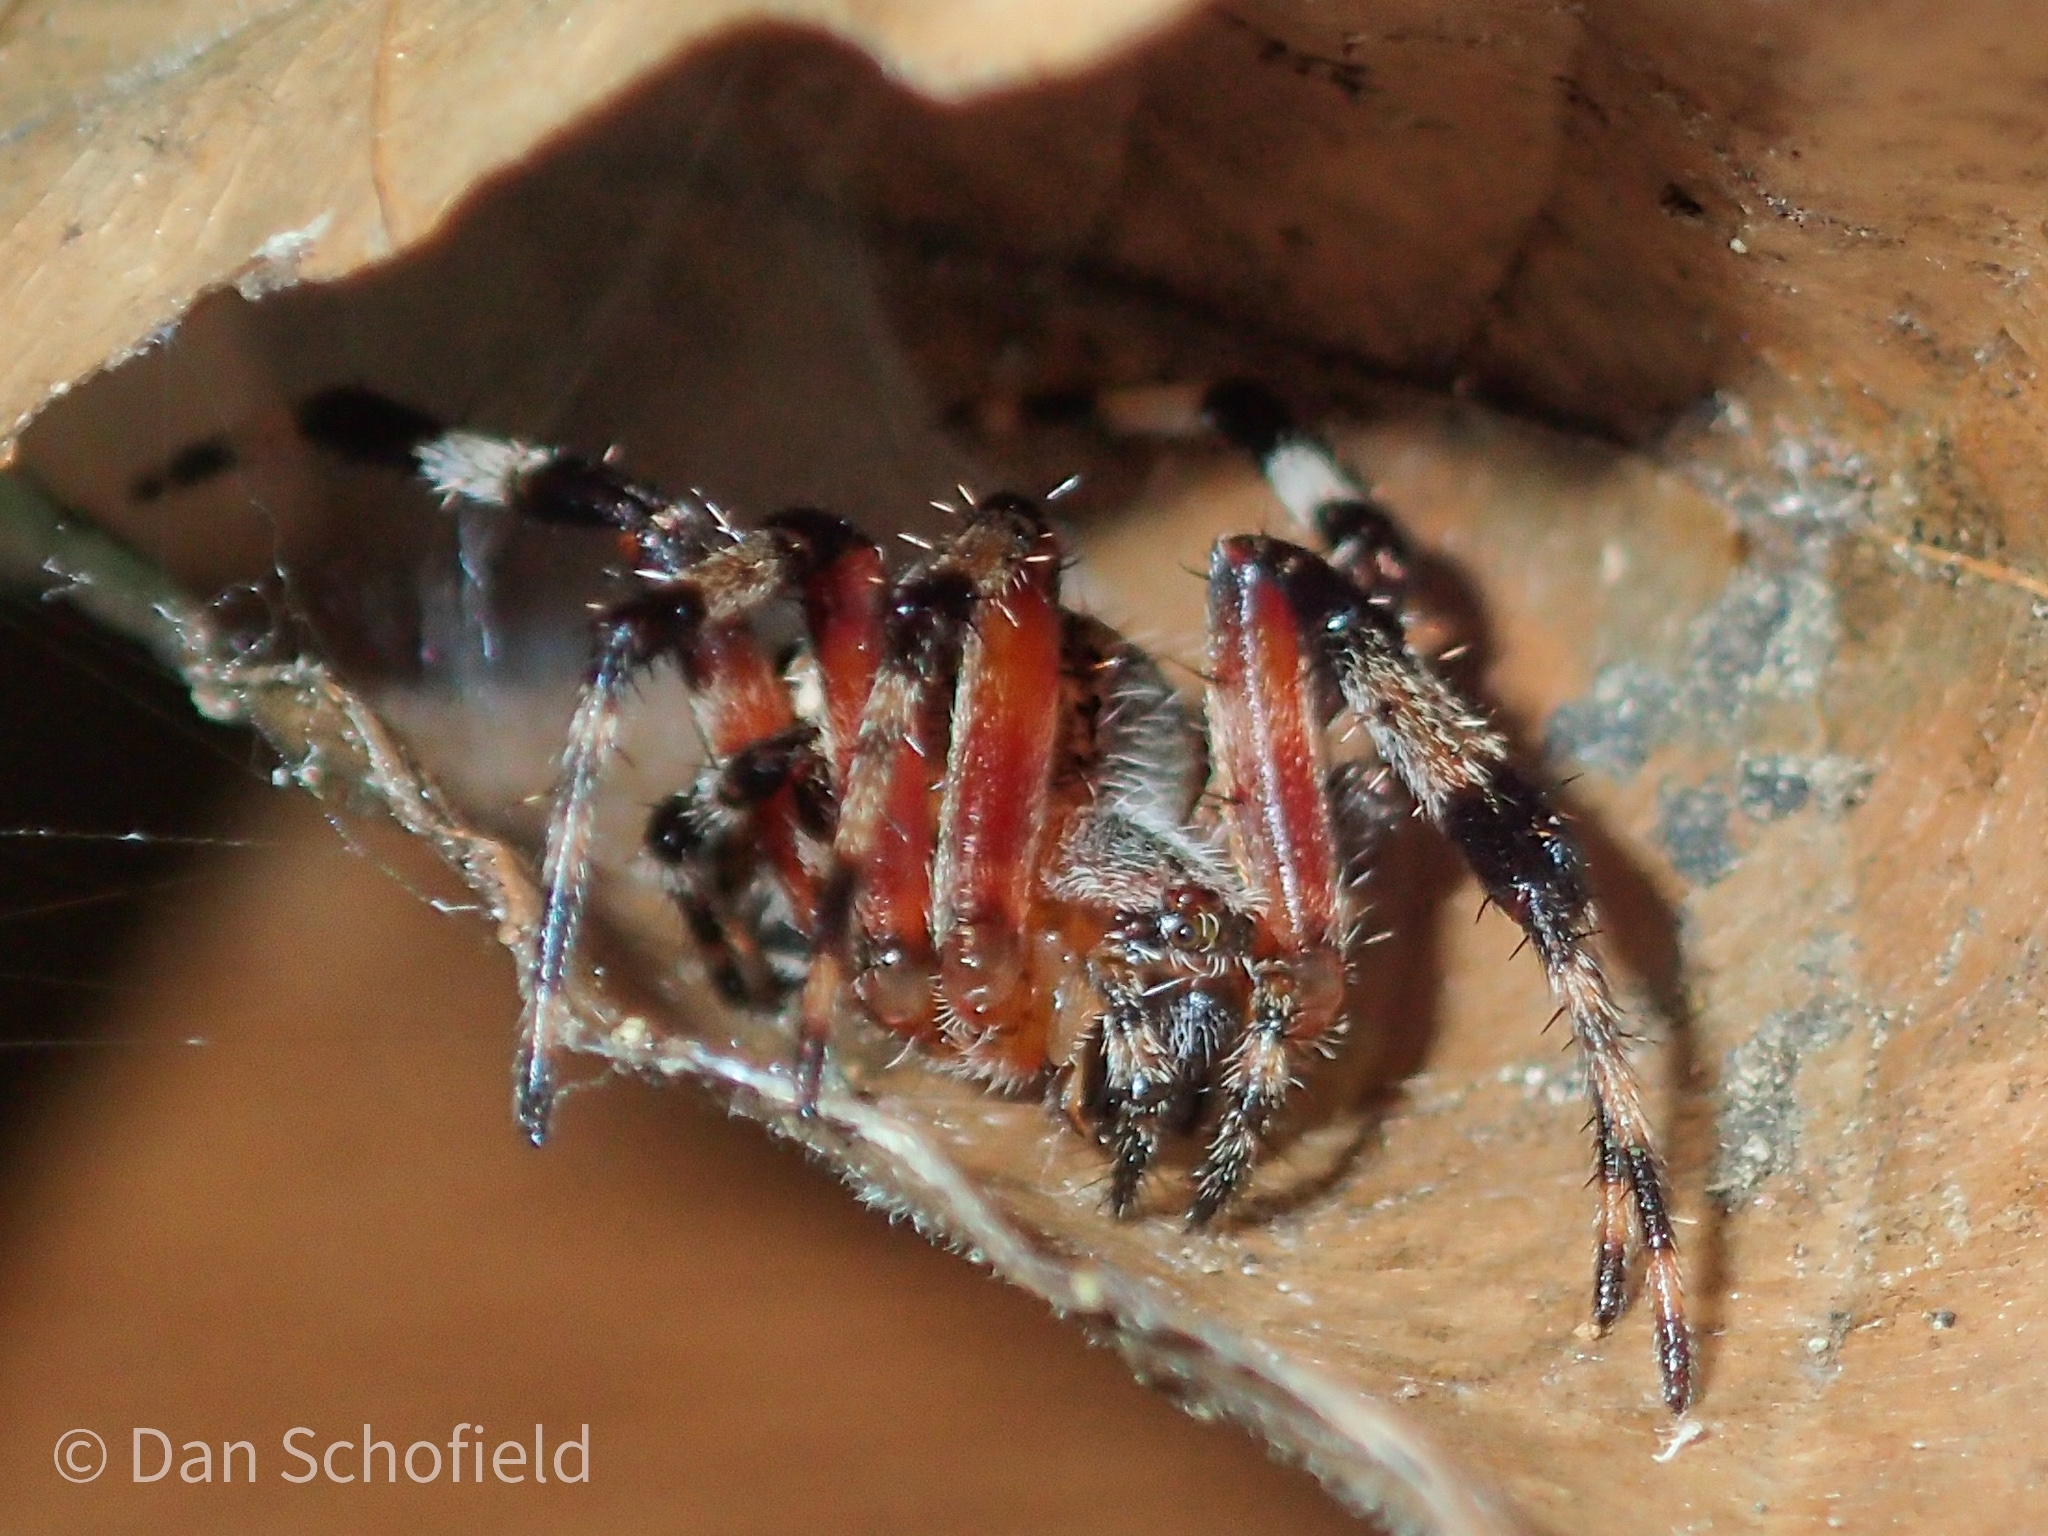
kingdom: Animalia
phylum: Arthropoda
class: Arachnida
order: Araneae
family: Araneidae
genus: Neoscona
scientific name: Neoscona domiciliorum
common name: Red-femured spotted orbweaver
